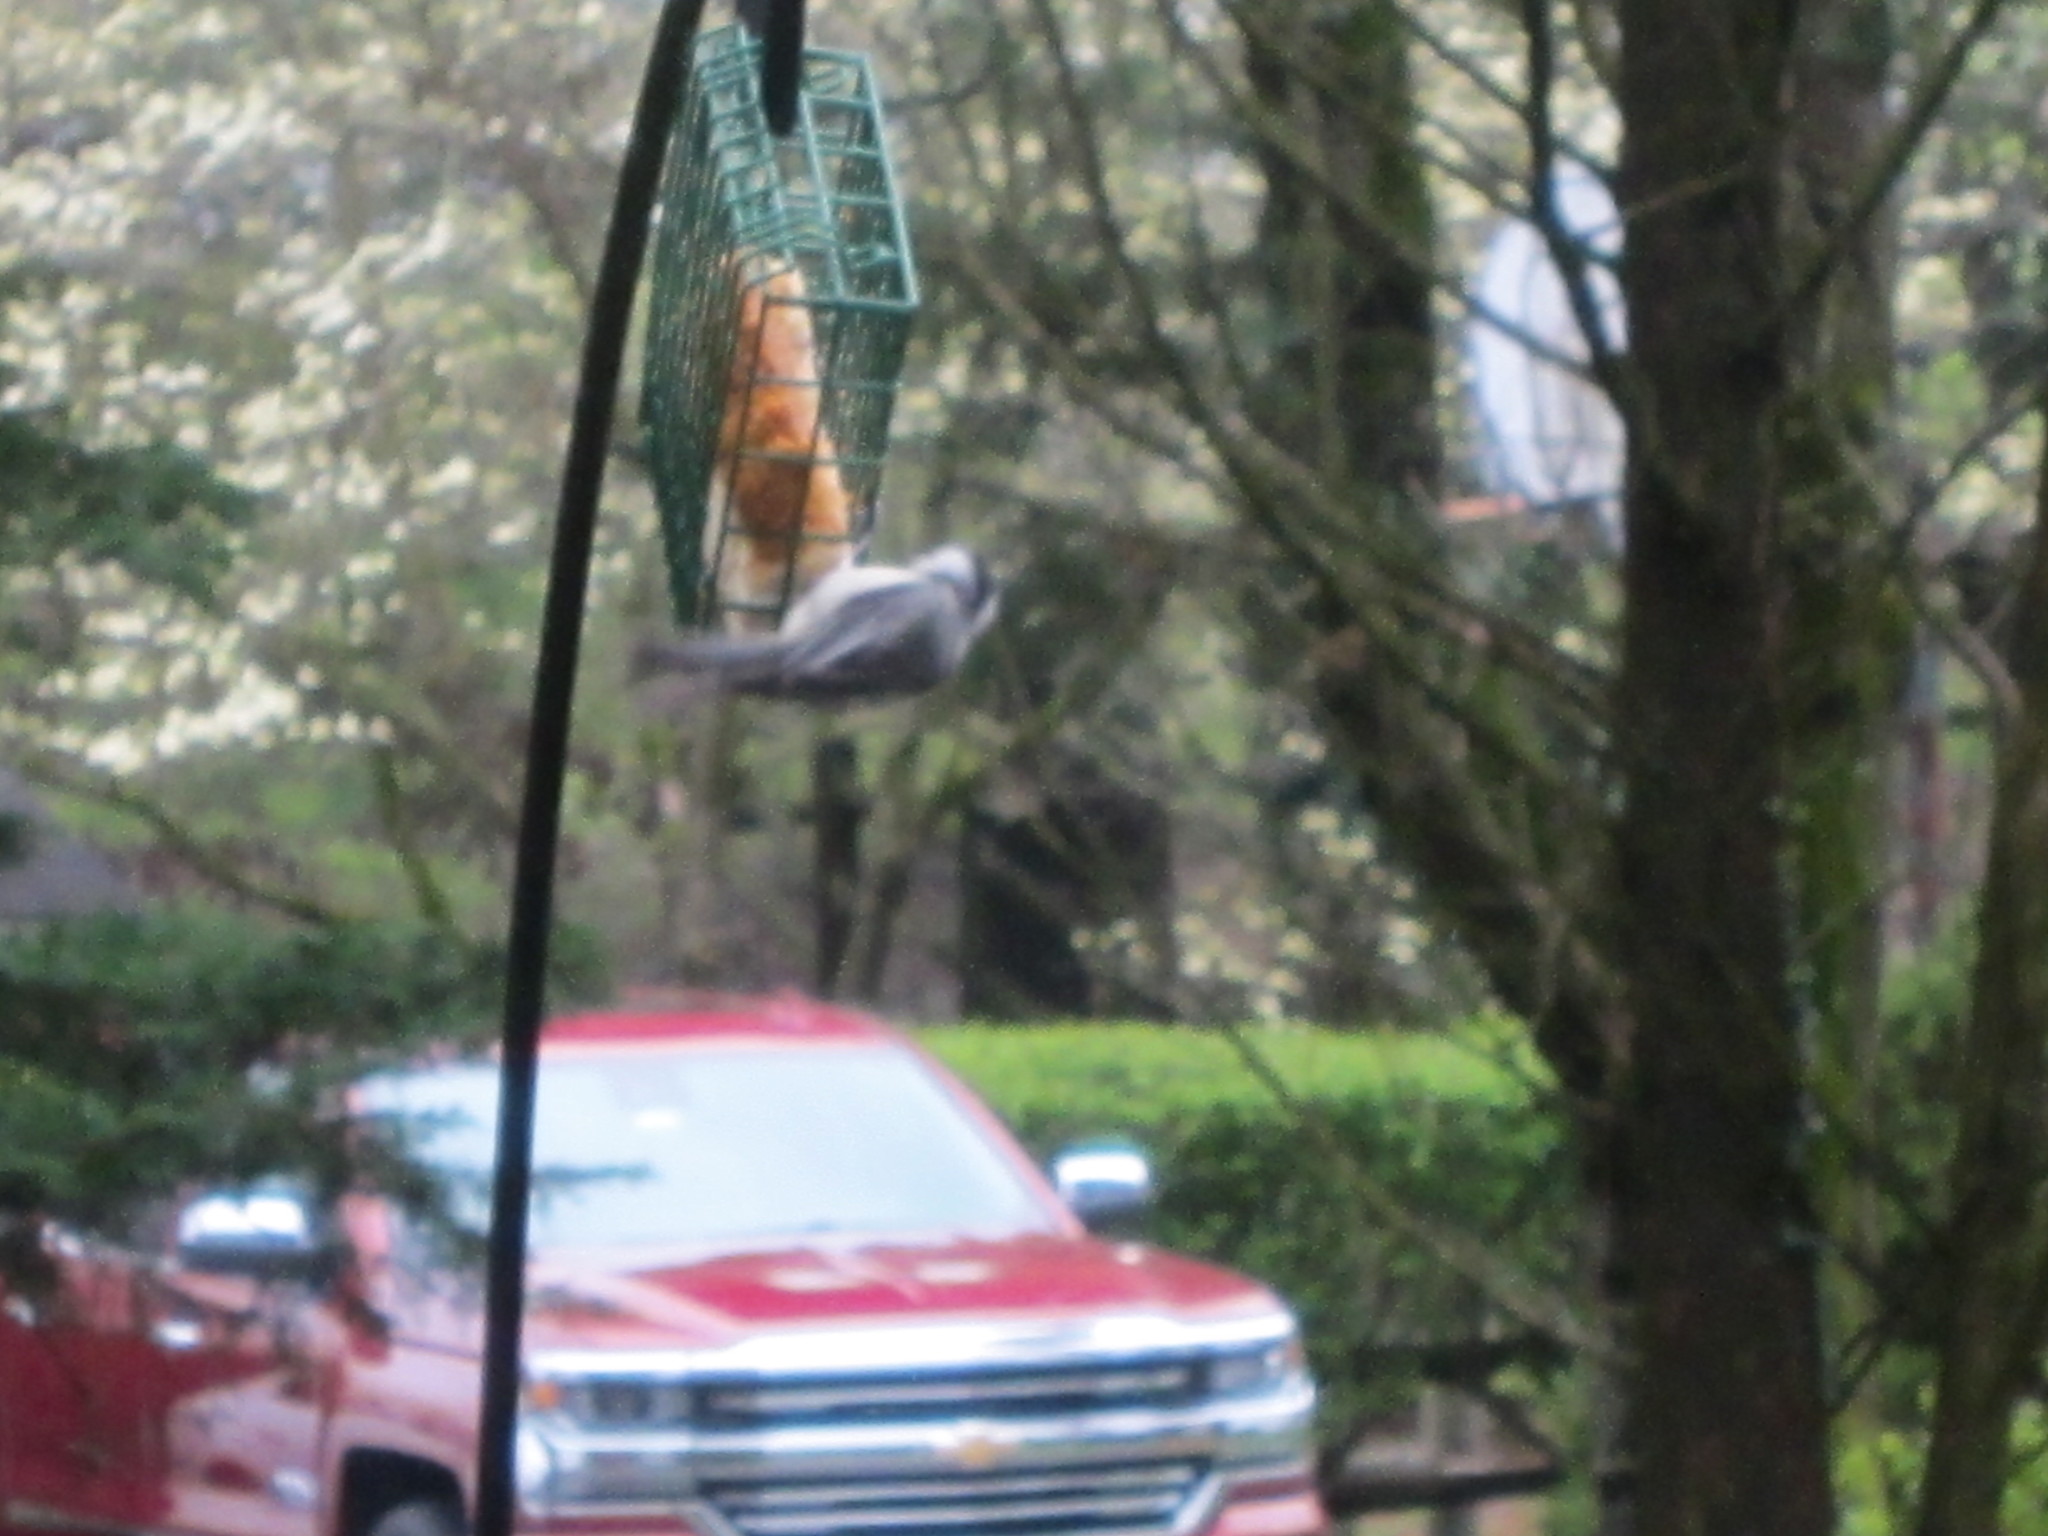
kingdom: Animalia
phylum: Chordata
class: Aves
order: Passeriformes
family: Paridae
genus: Poecile
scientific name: Poecile carolinensis
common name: Carolina chickadee
